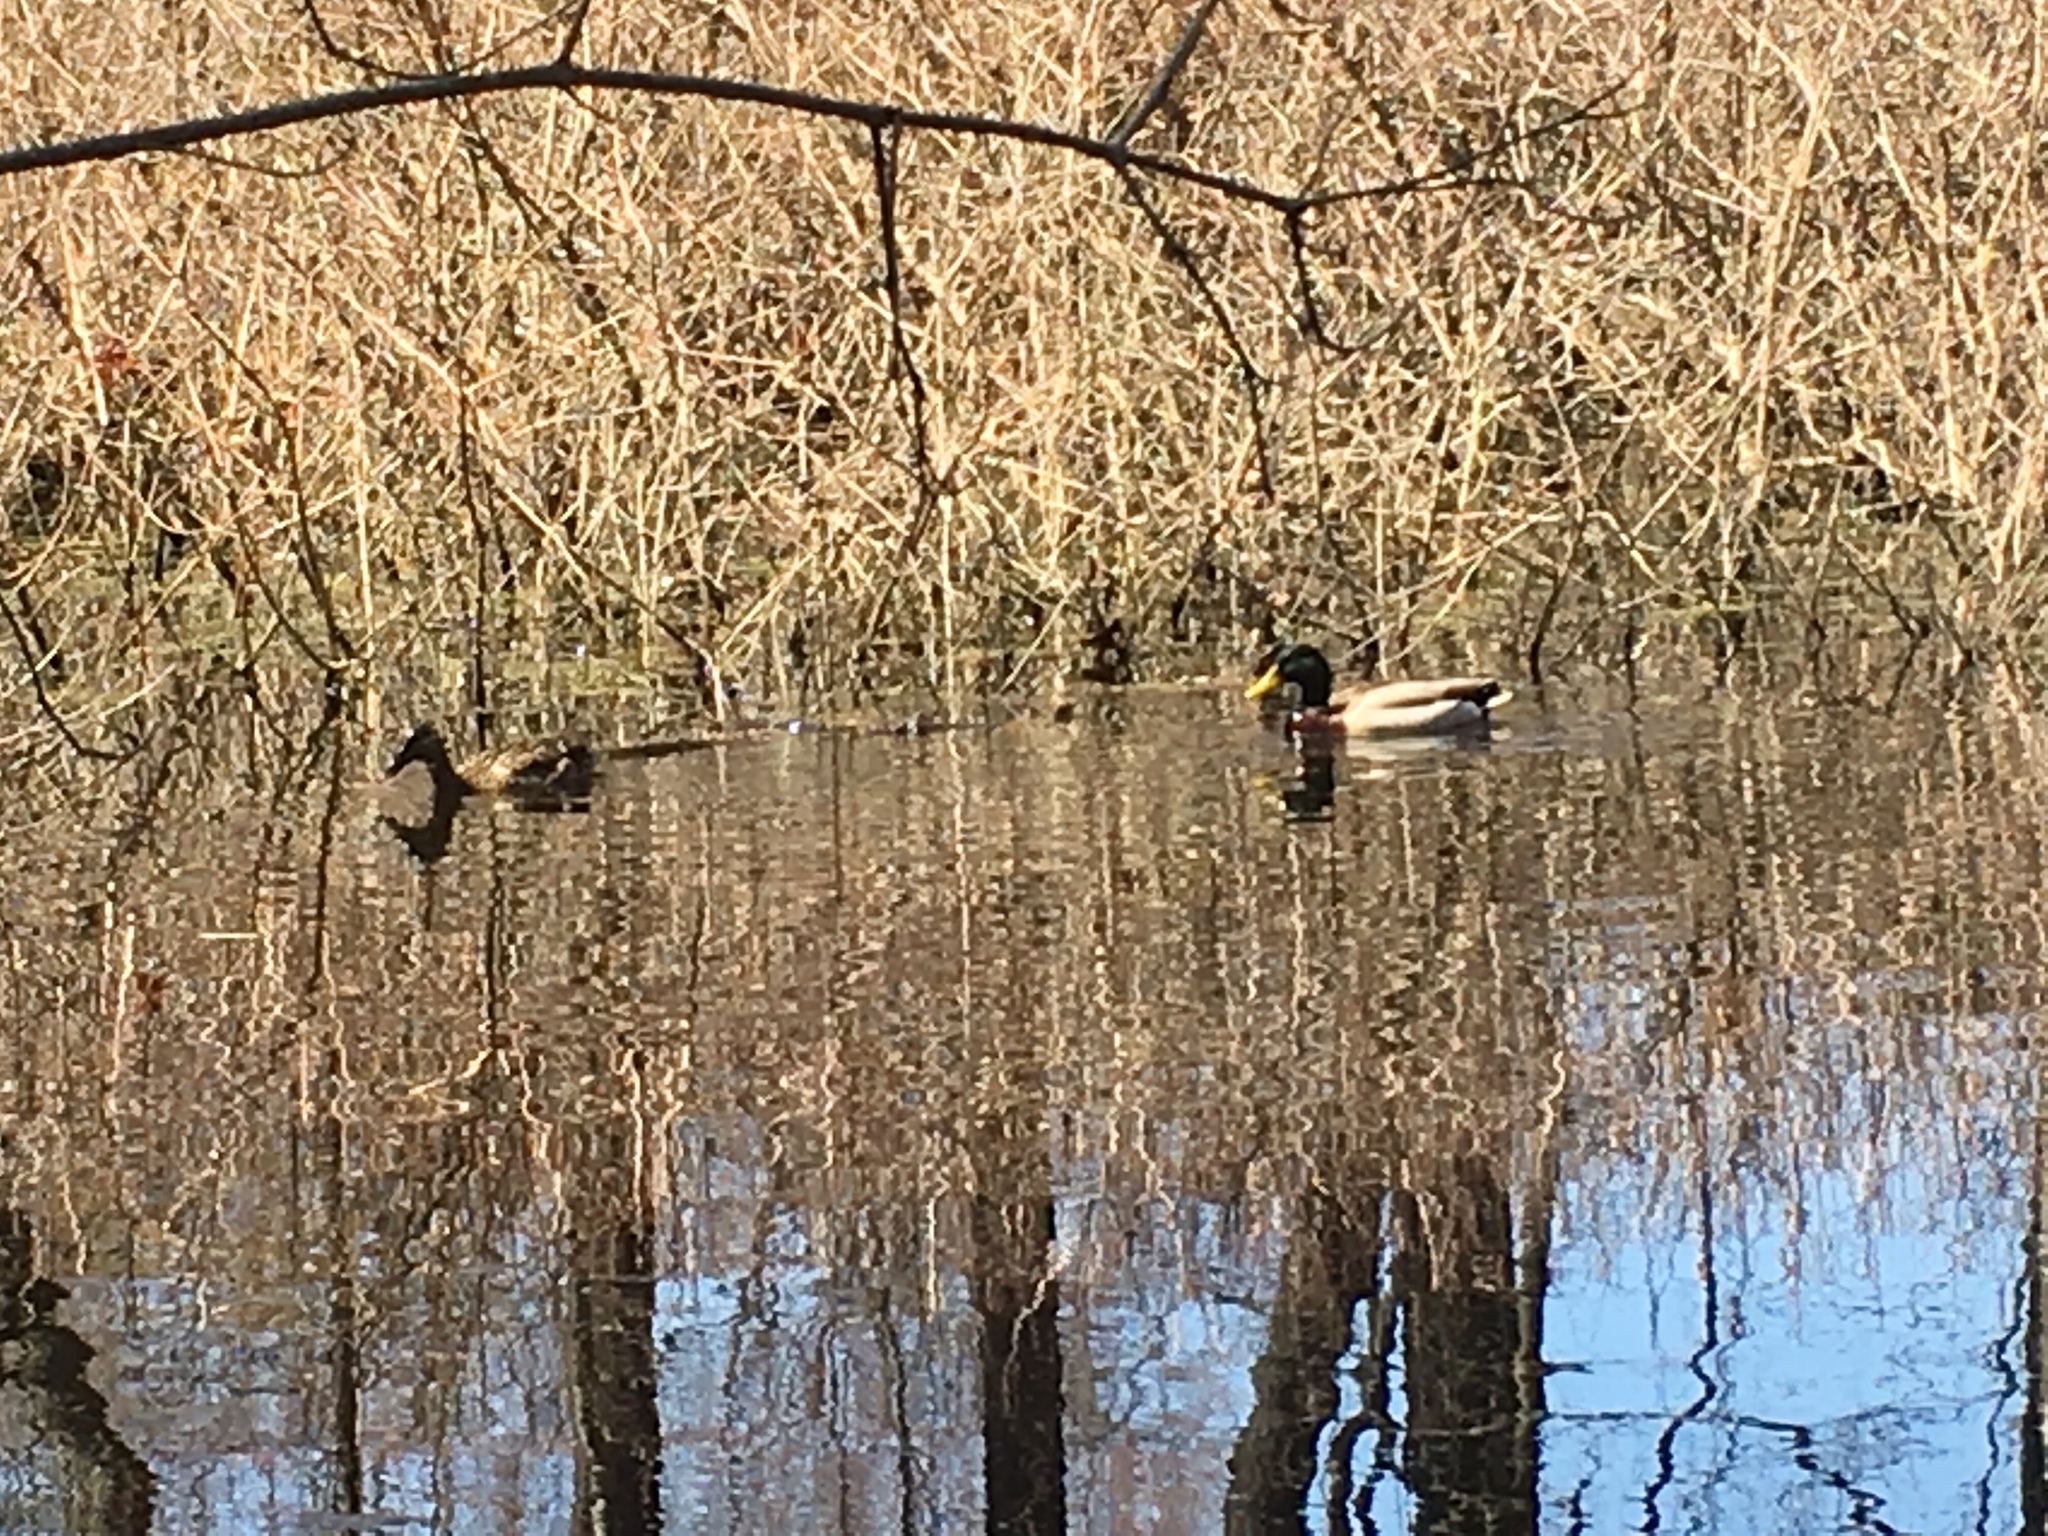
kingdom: Animalia
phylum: Chordata
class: Aves
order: Anseriformes
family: Anatidae
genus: Anas
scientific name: Anas platyrhynchos
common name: Mallard
